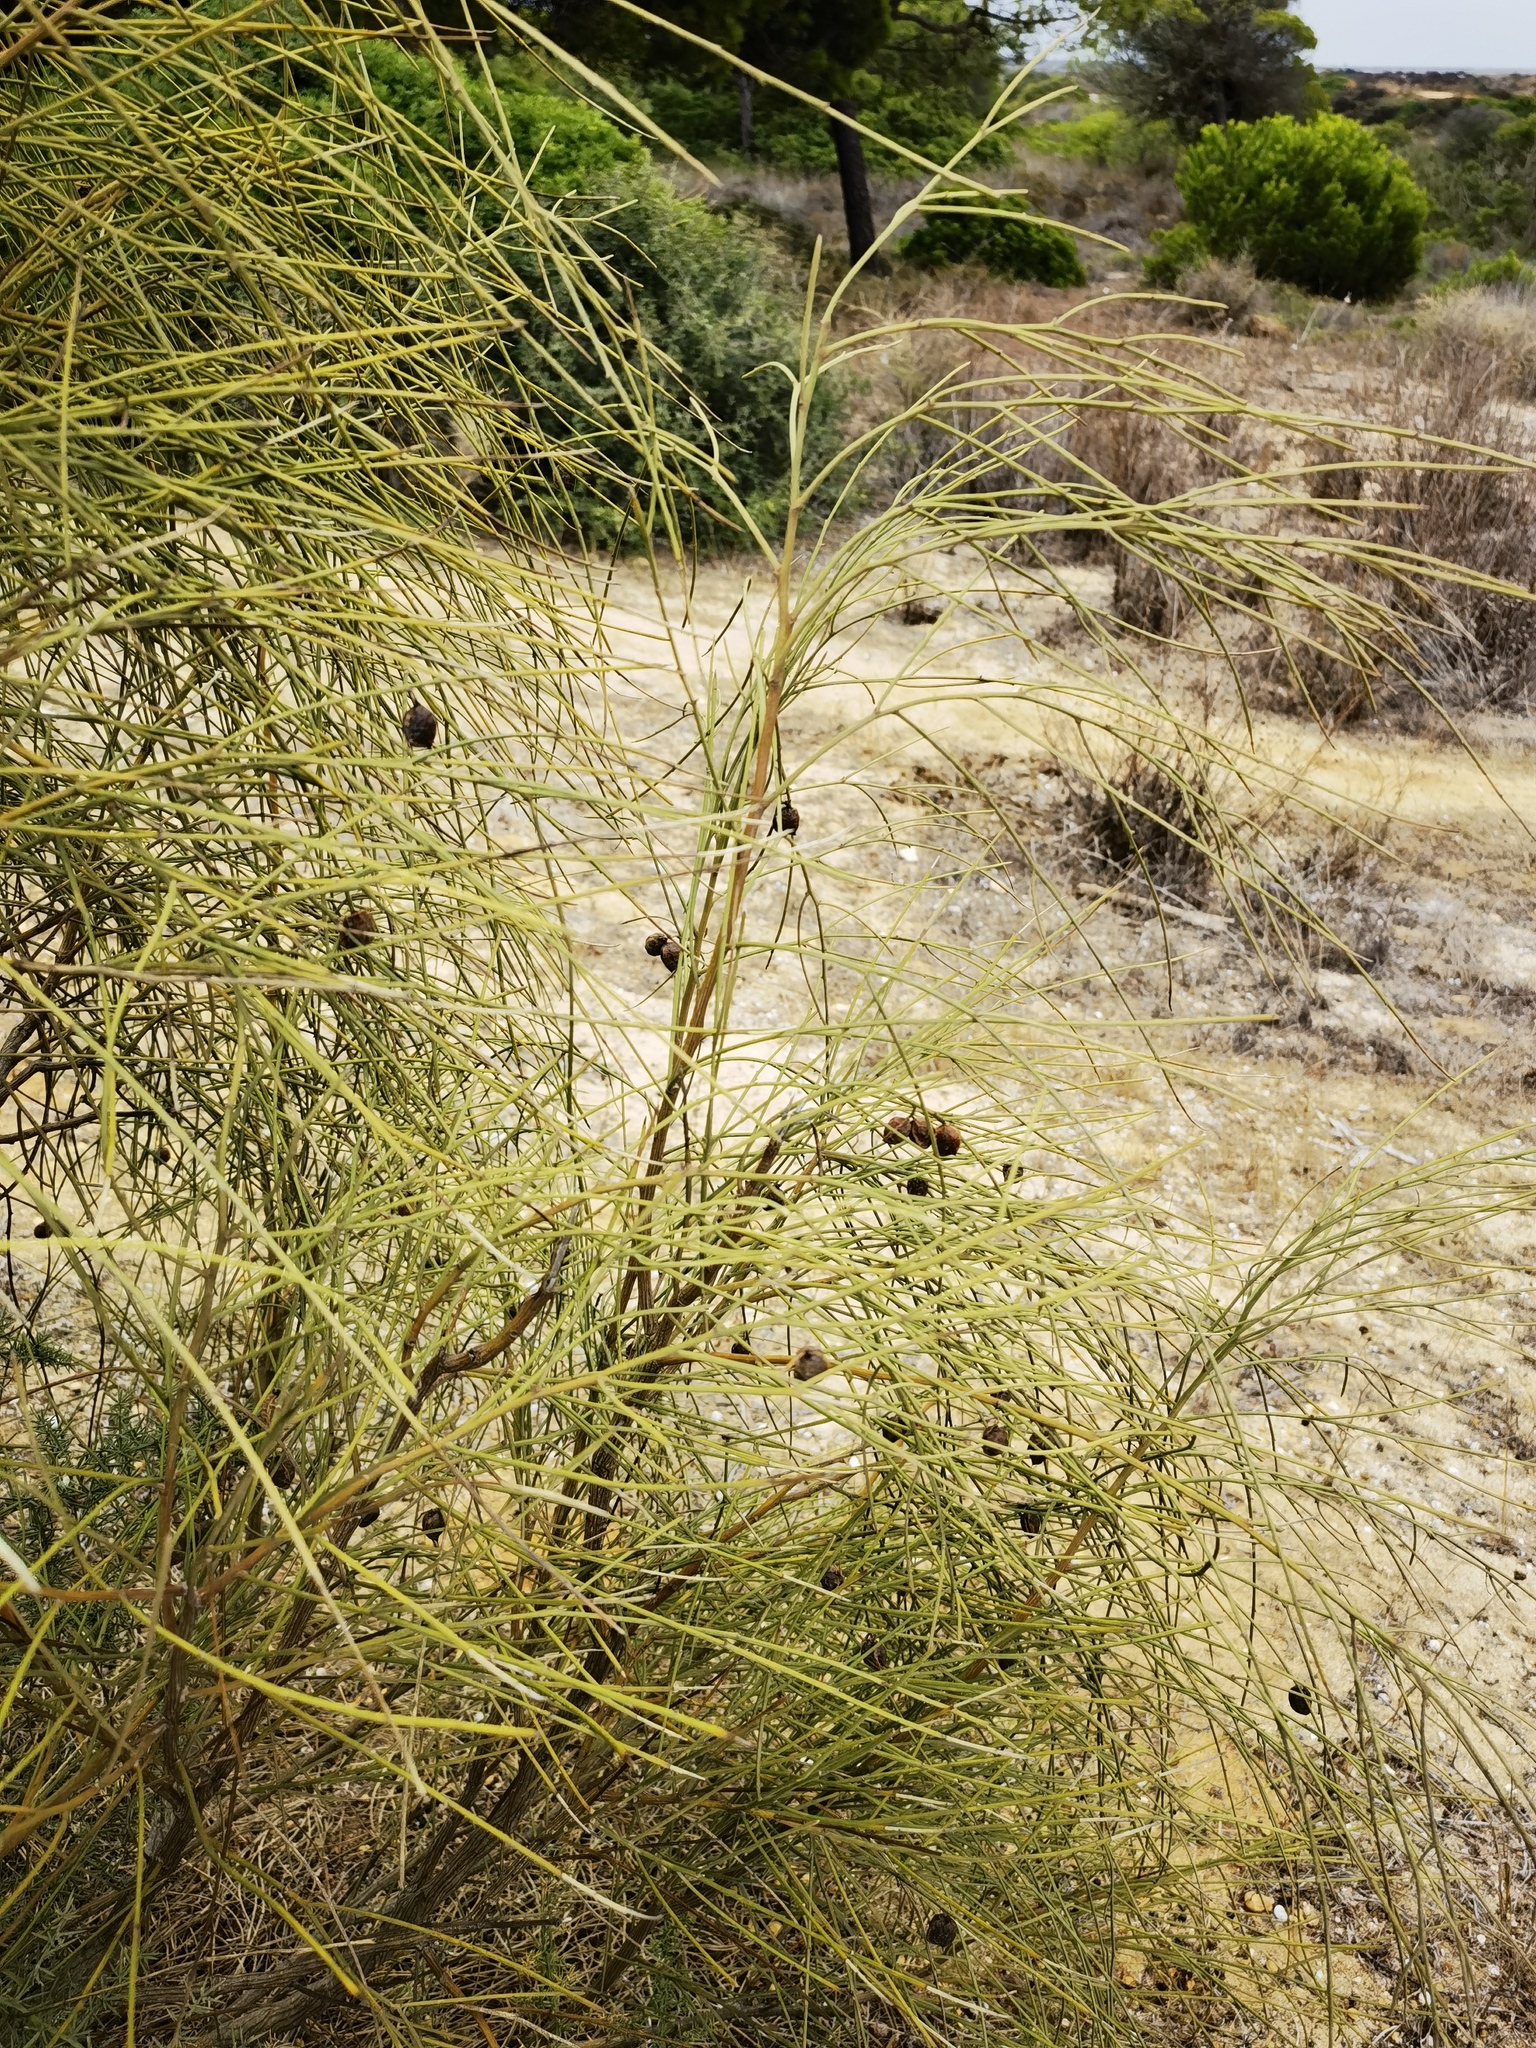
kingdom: Plantae
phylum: Tracheophyta
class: Magnoliopsida
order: Fabales
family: Fabaceae
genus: Retama
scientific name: Retama monosperma
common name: Bridal broom
